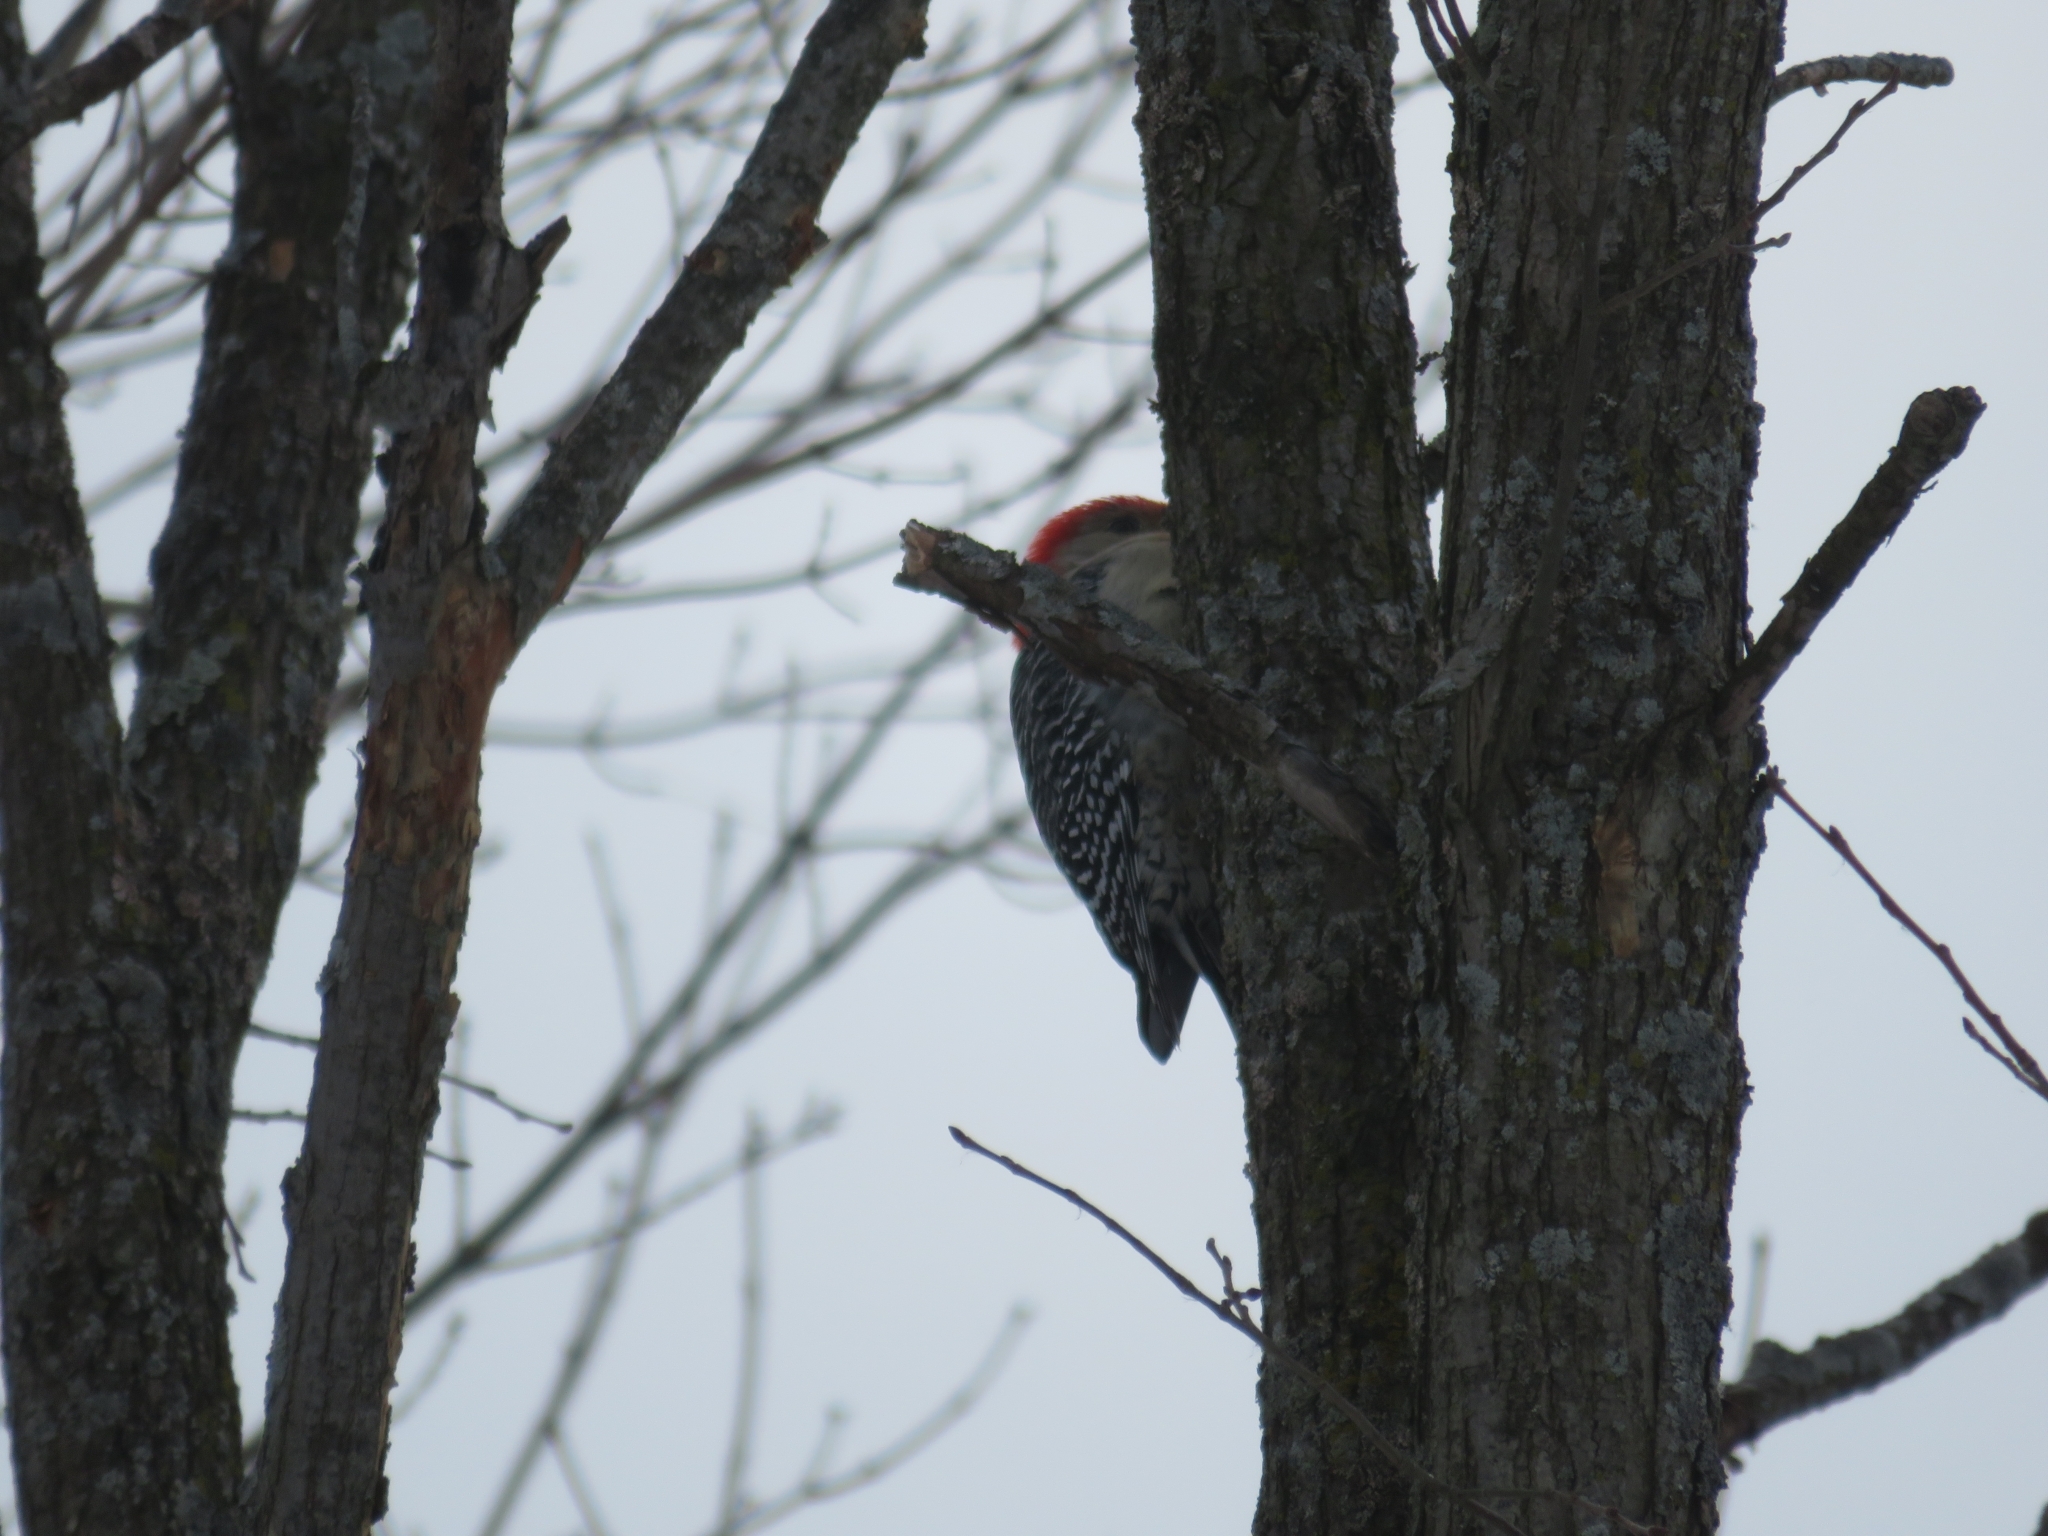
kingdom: Animalia
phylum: Chordata
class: Aves
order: Piciformes
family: Picidae
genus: Melanerpes
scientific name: Melanerpes carolinus
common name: Red-bellied woodpecker
